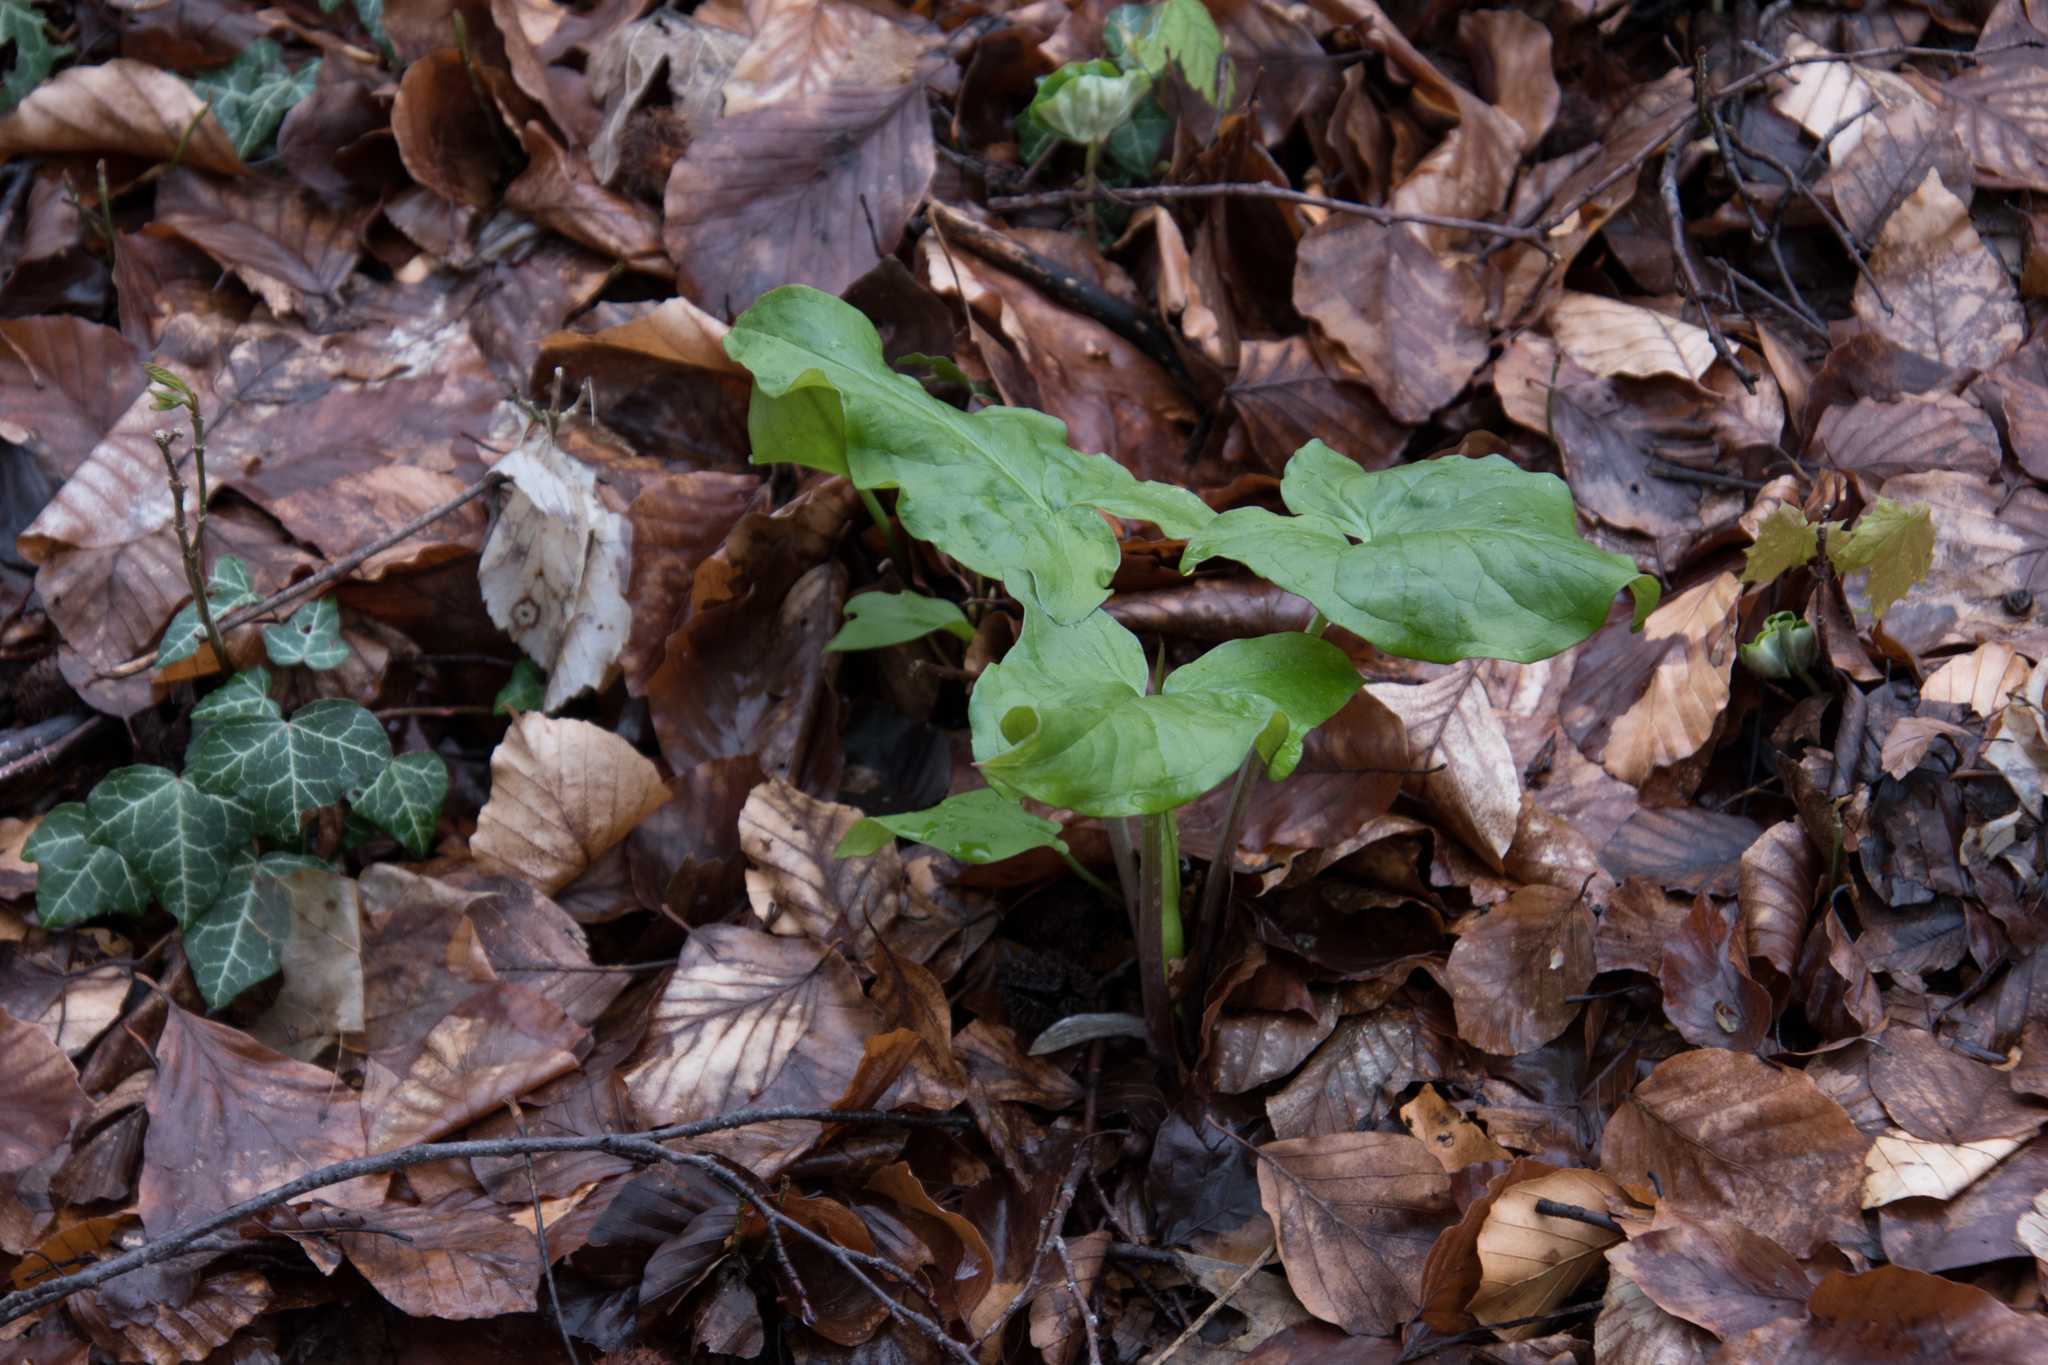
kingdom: Plantae
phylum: Tracheophyta
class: Liliopsida
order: Alismatales
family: Araceae
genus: Arum
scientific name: Arum maculatum
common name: Lords-and-ladies
